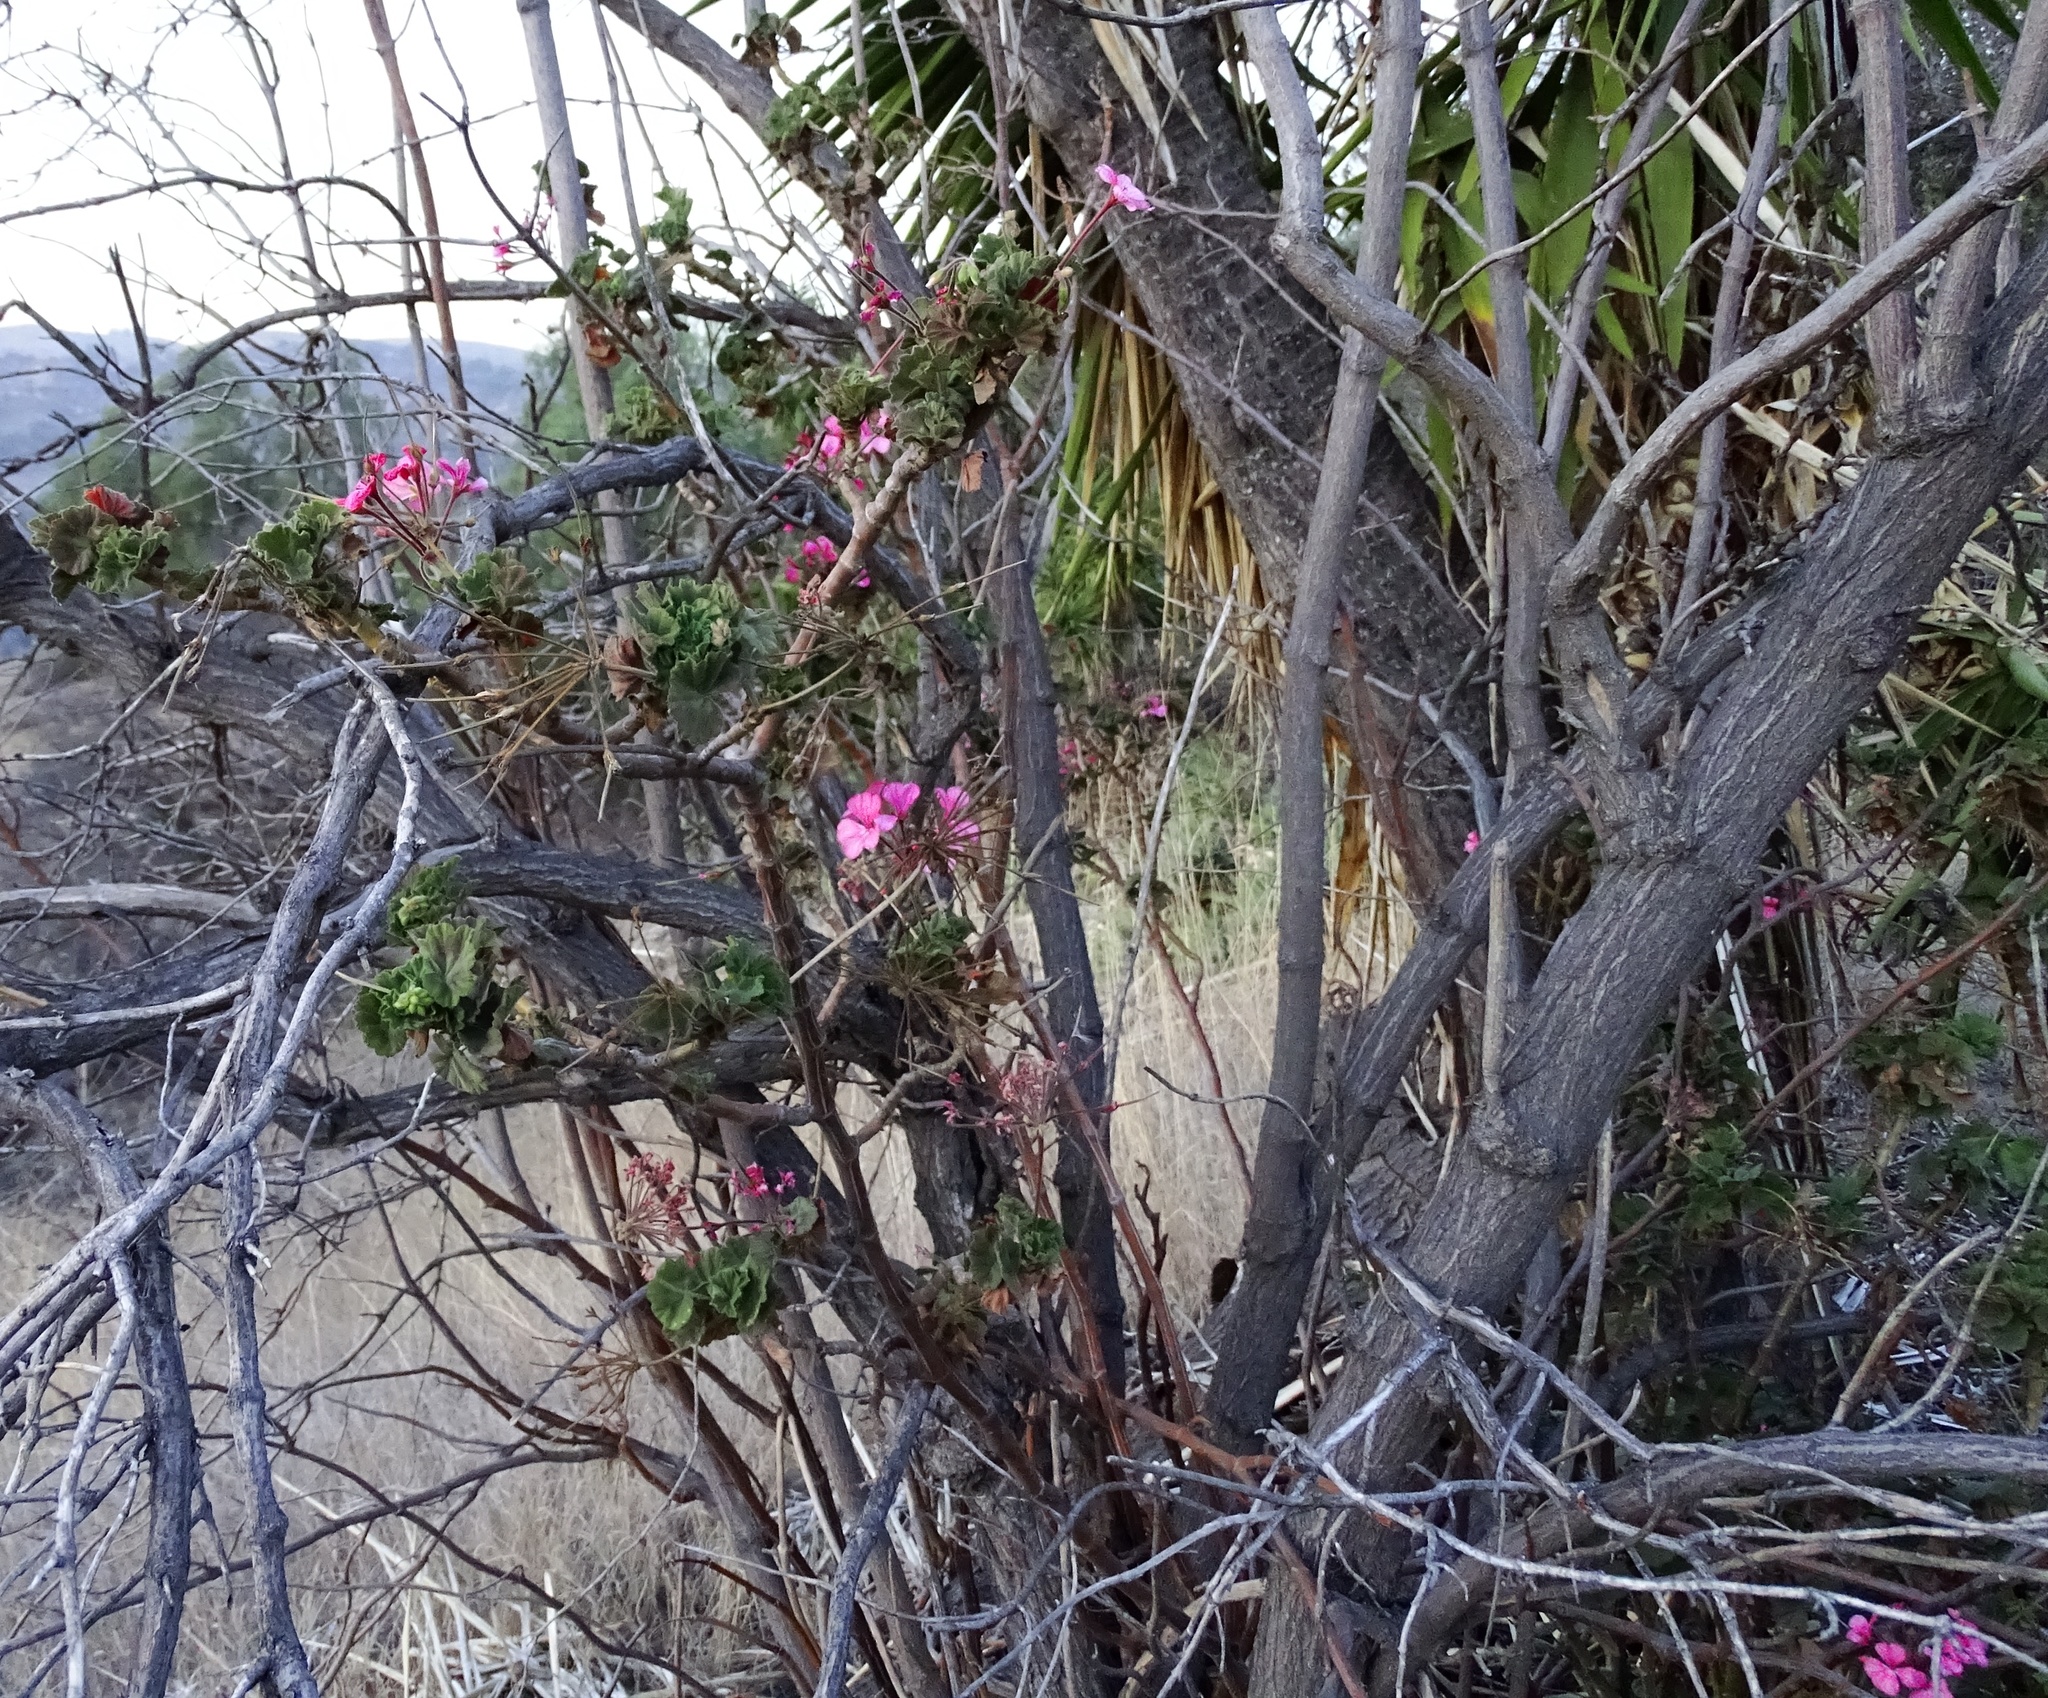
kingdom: Plantae
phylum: Tracheophyta
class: Magnoliopsida
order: Geraniales
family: Geraniaceae
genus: Pelargonium
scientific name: Pelargonium hybridum
